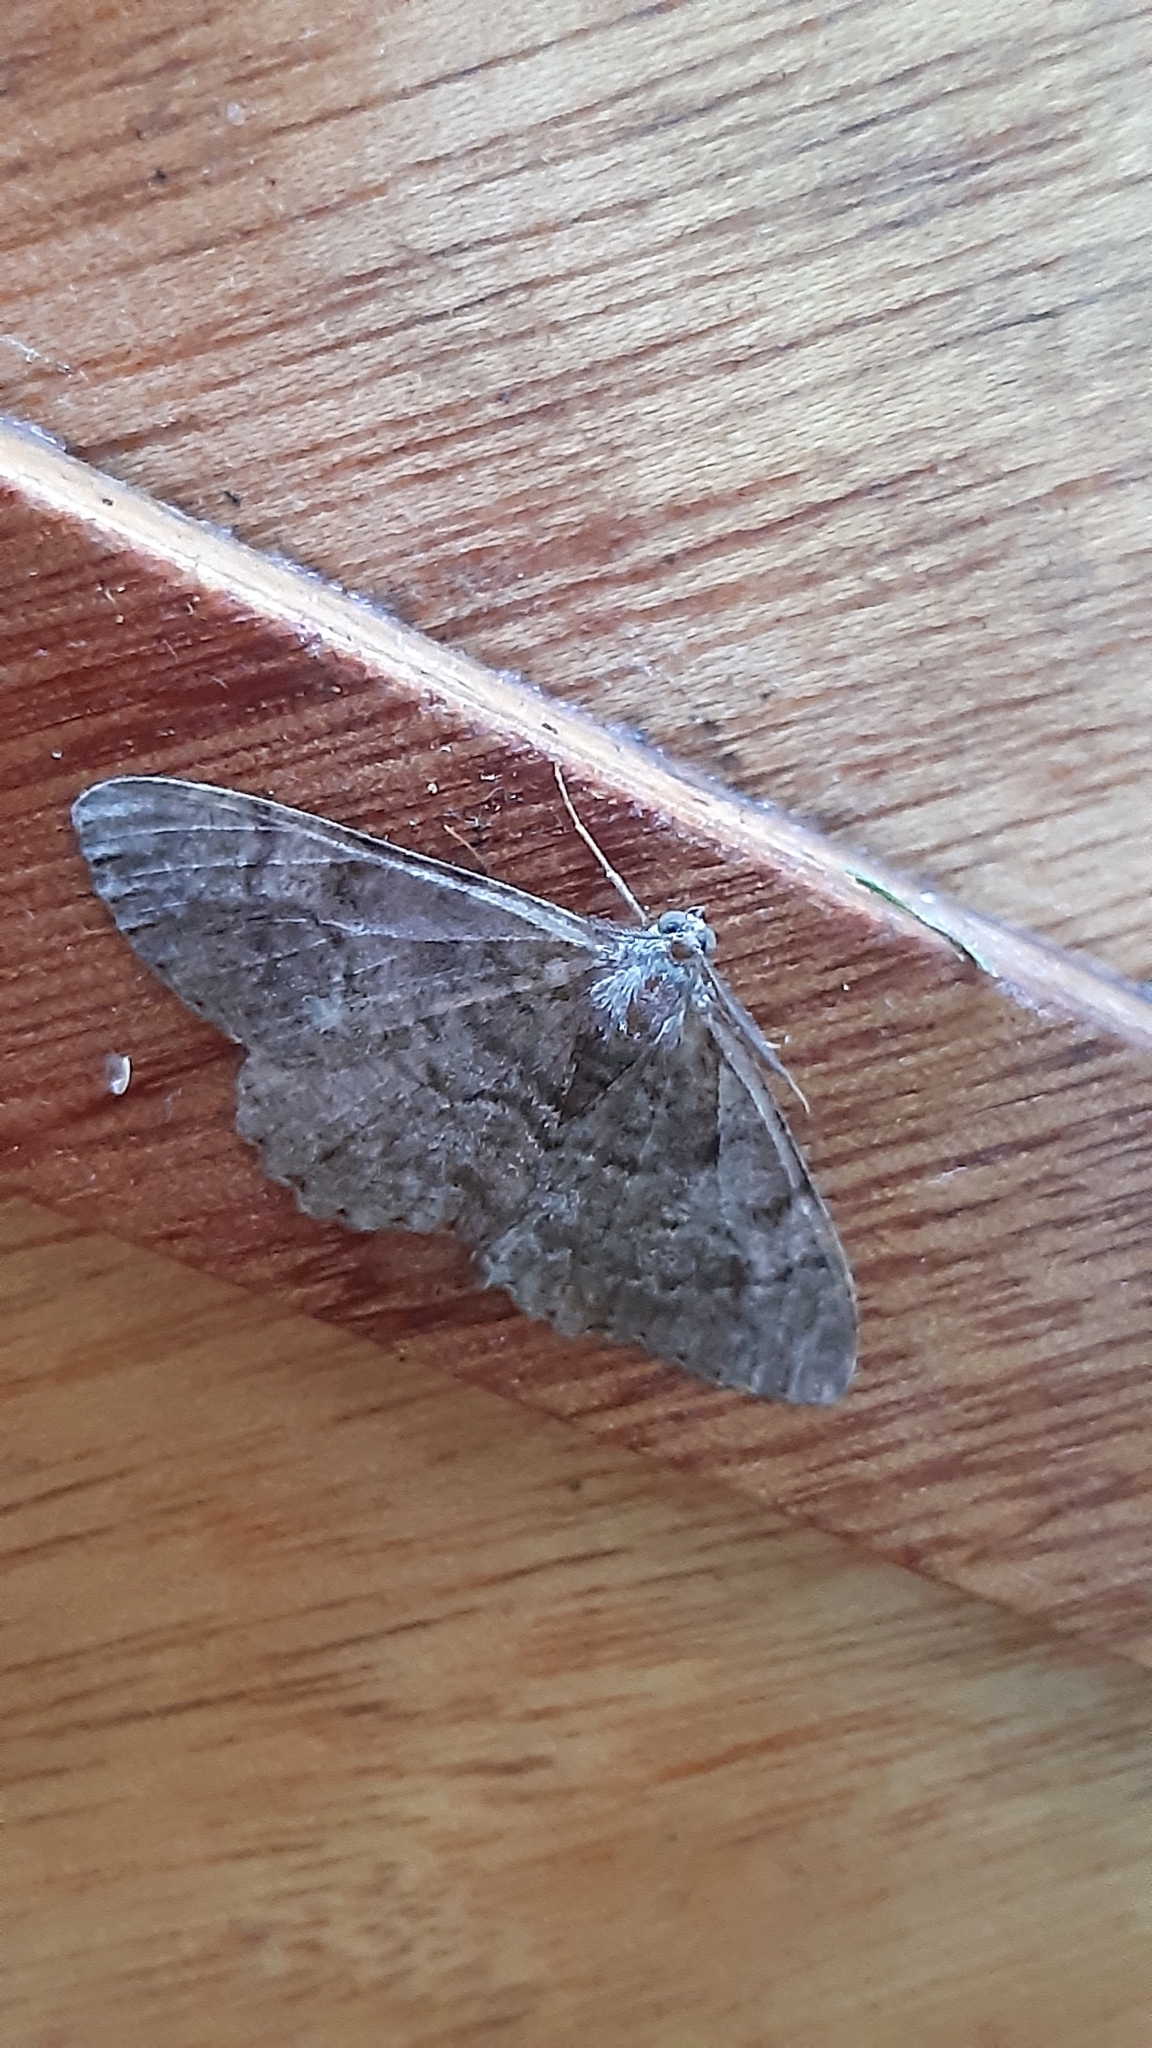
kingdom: Animalia
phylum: Arthropoda
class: Insecta
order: Lepidoptera
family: Geometridae
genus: Alcis
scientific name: Alcis repandata
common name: Mottled beauty
